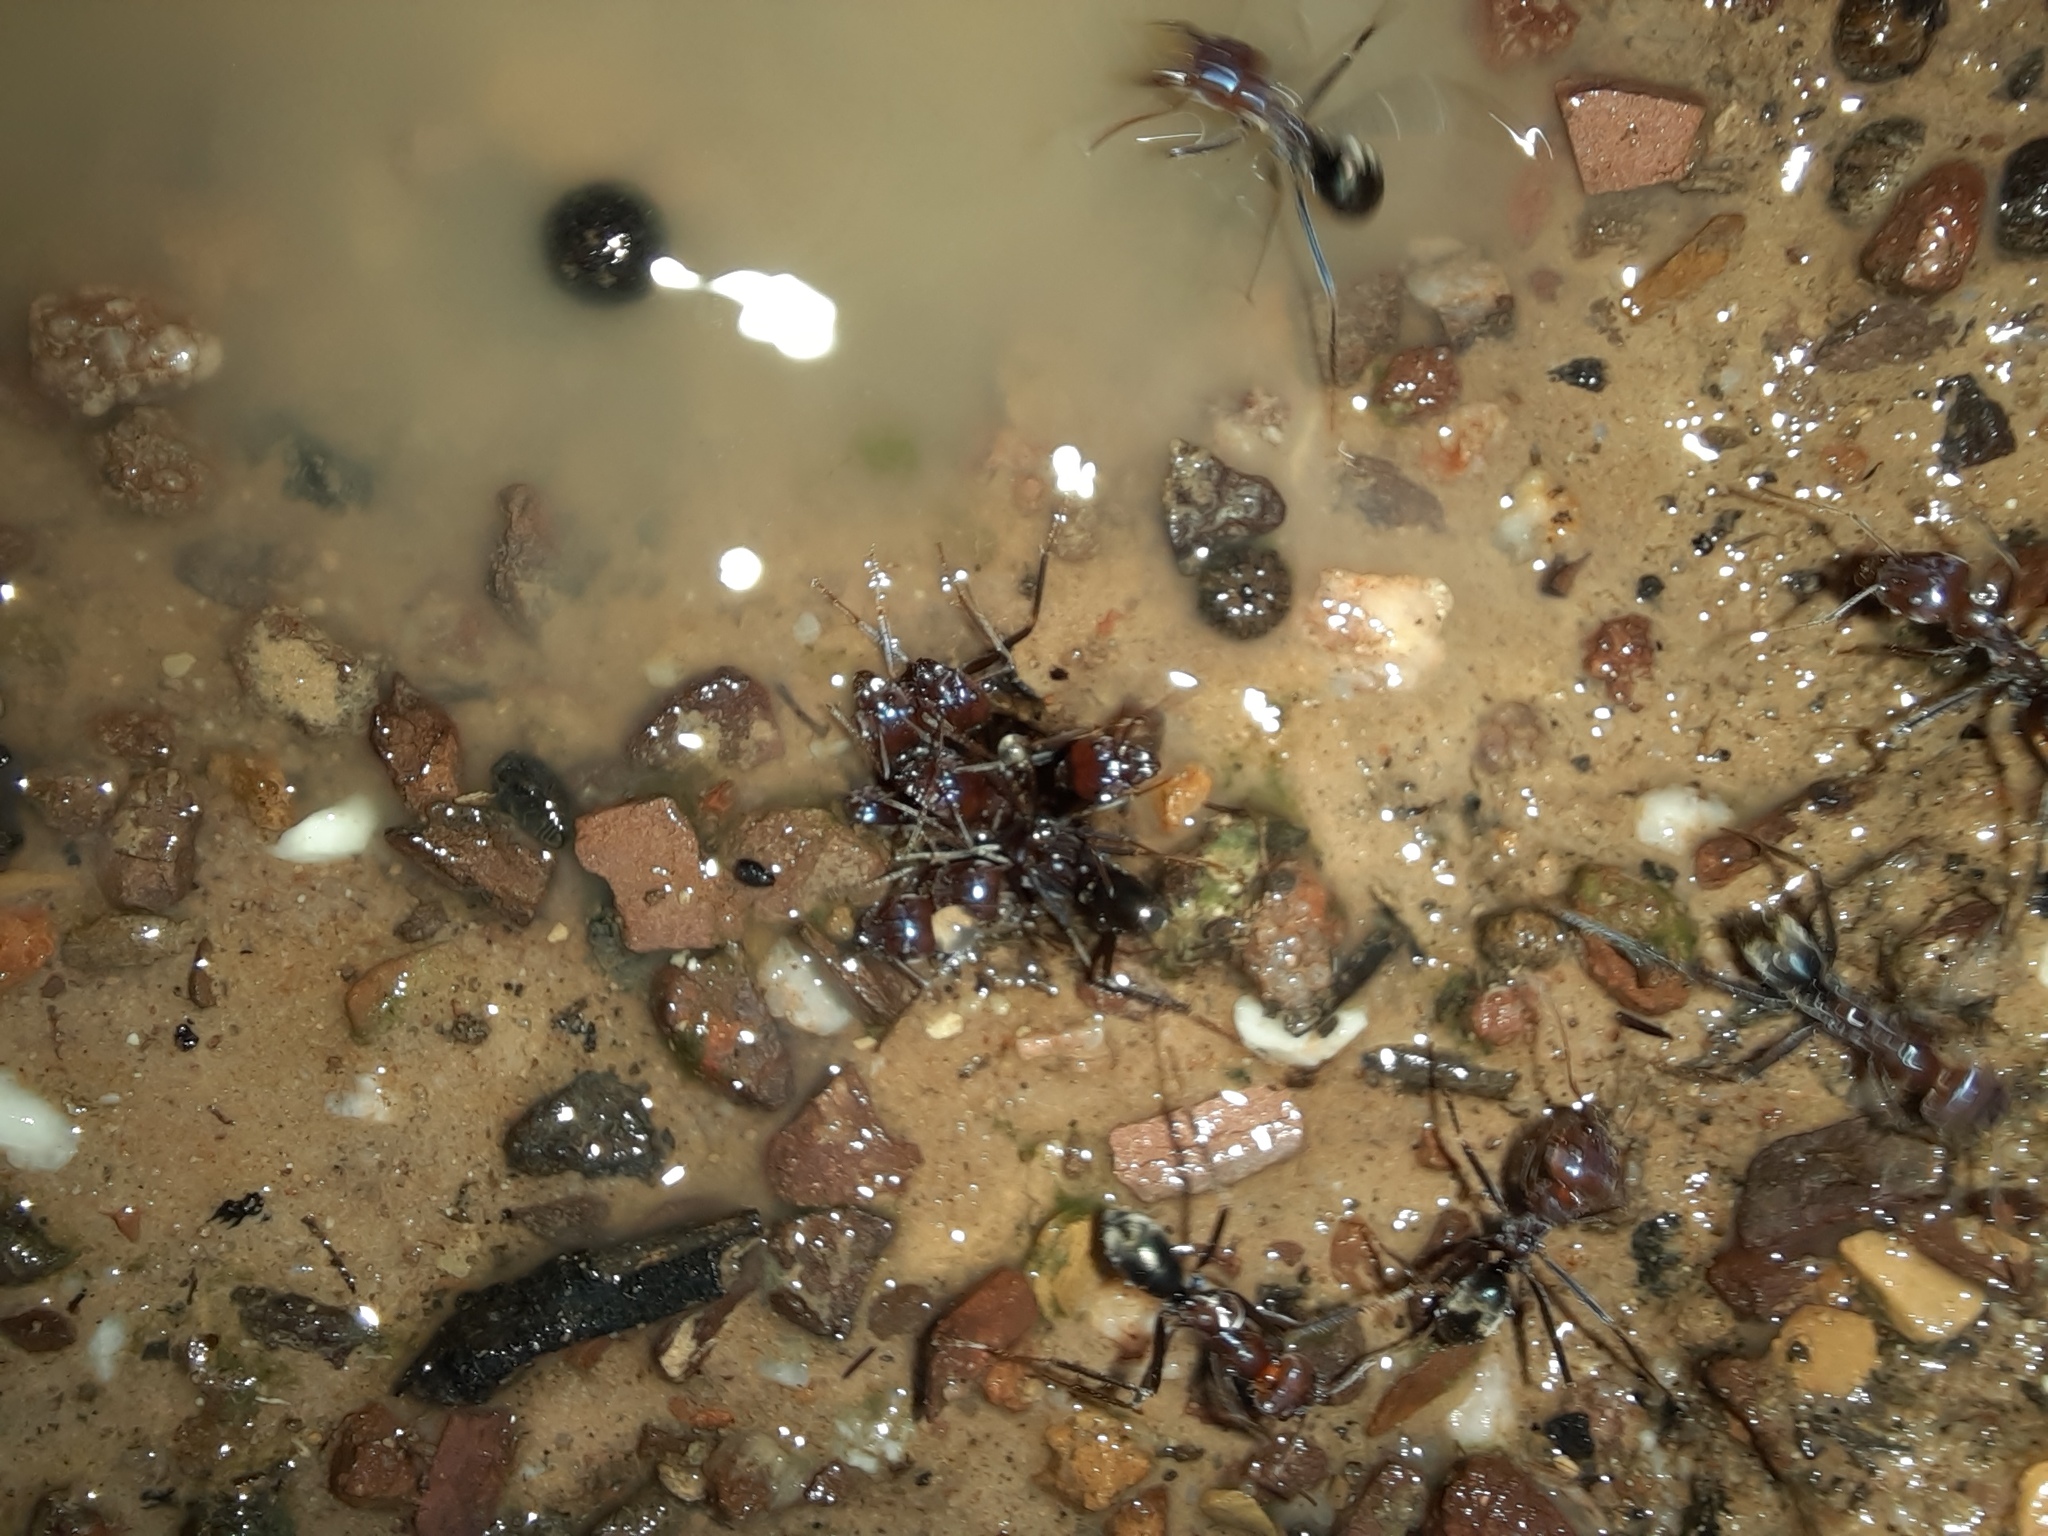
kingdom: Animalia
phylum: Arthropoda
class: Insecta
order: Hymenoptera
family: Formicidae
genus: Iridomyrmex
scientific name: Iridomyrmex purpureus
